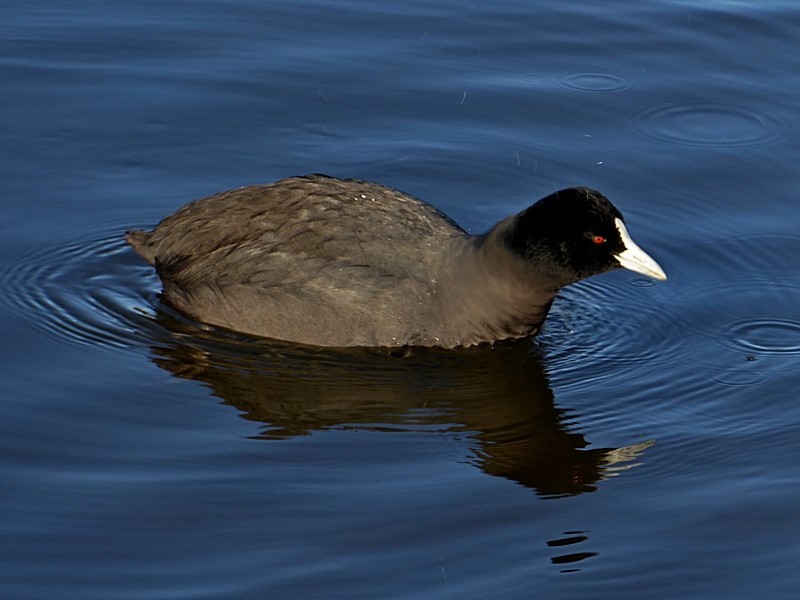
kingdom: Animalia
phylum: Chordata
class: Aves
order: Gruiformes
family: Rallidae
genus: Fulica
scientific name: Fulica atra
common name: Eurasian coot
